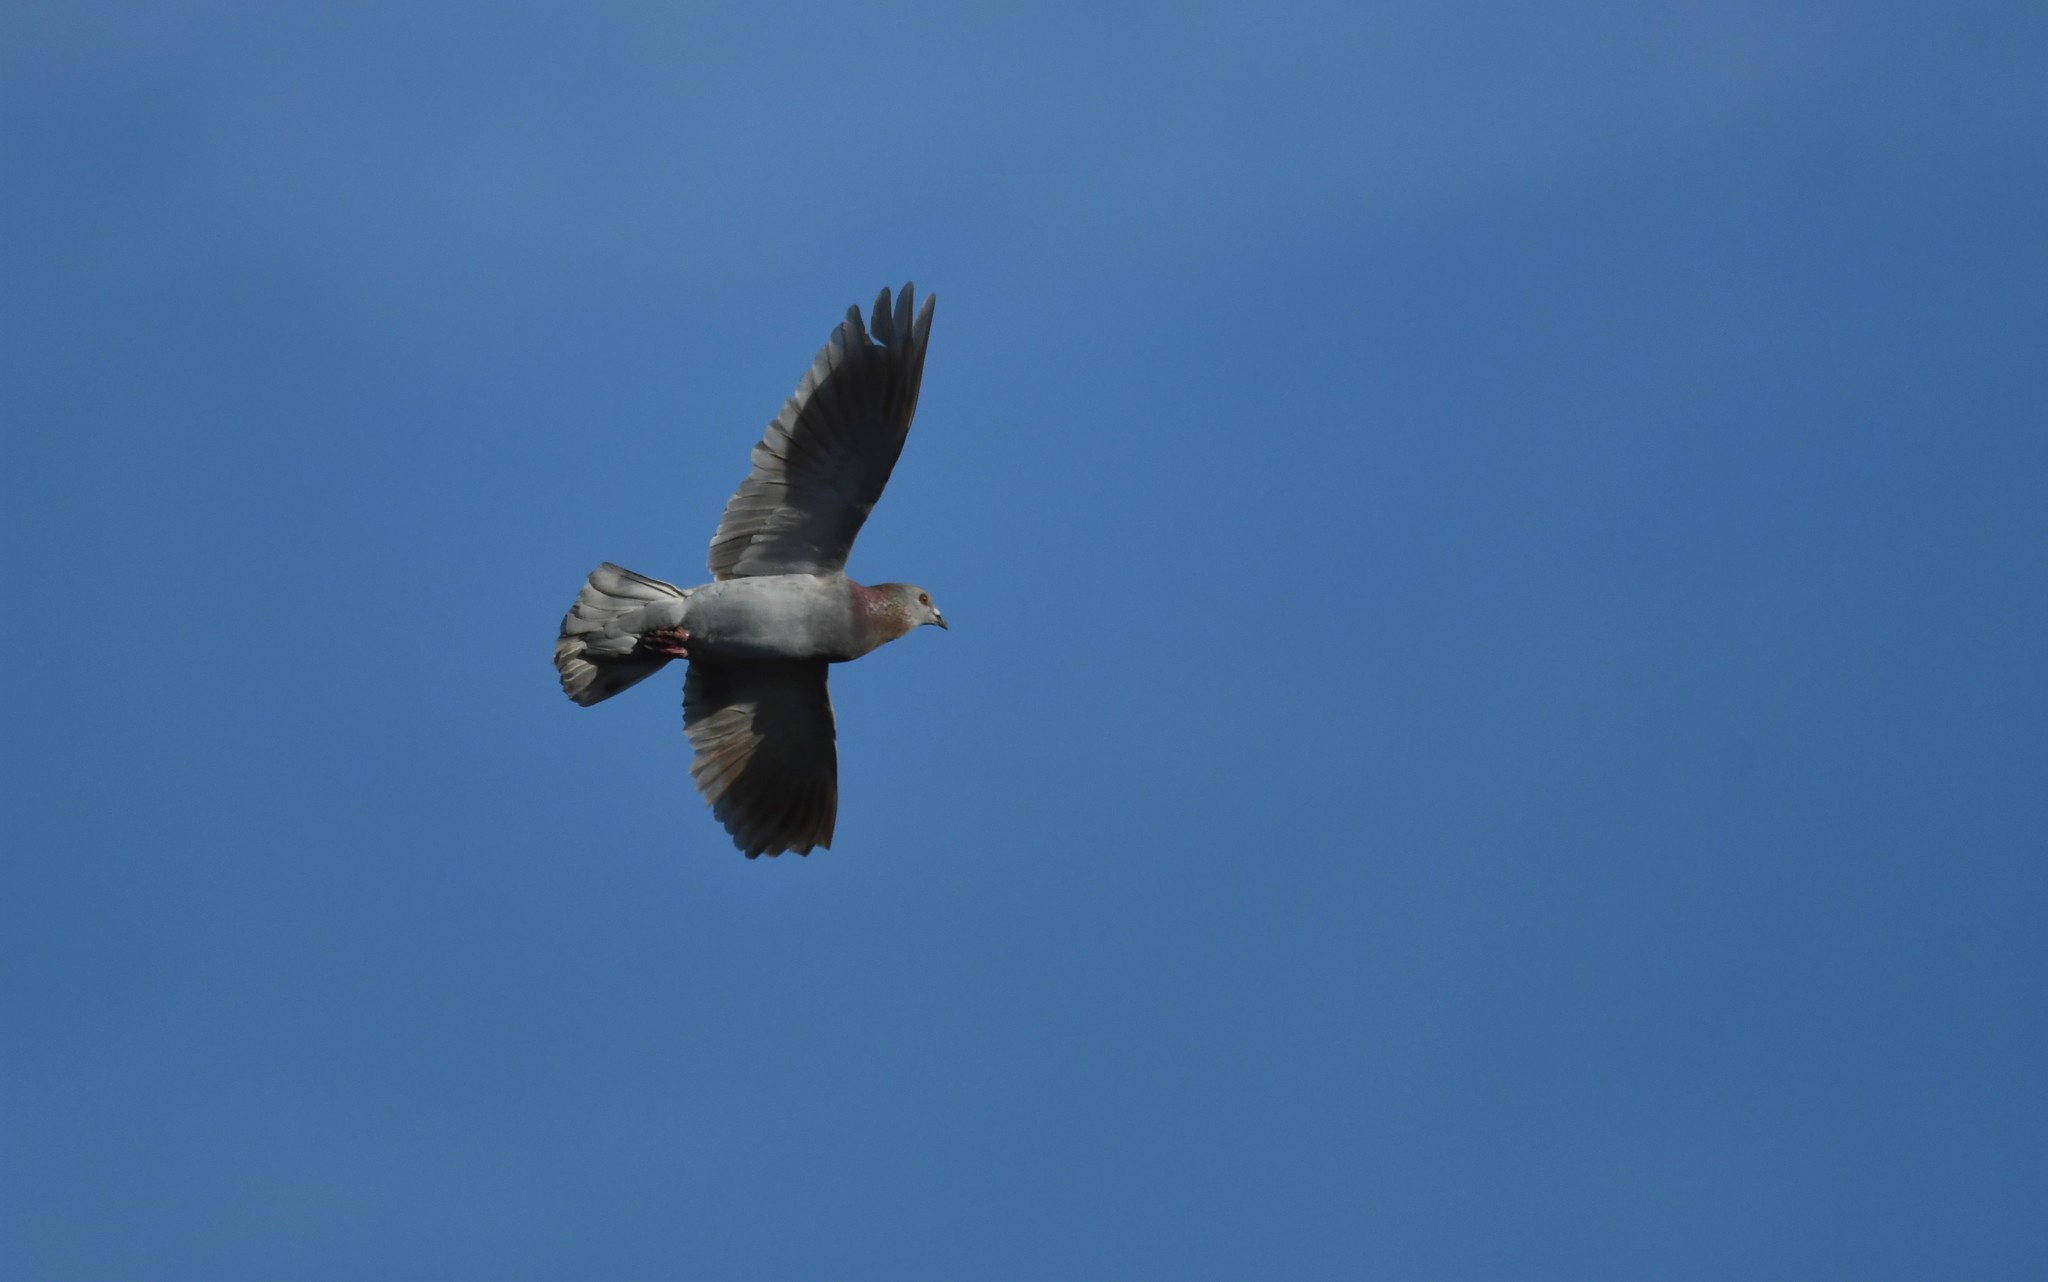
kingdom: Animalia
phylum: Chordata
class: Aves
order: Columbiformes
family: Columbidae
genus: Columba
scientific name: Columba livia
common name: Rock pigeon
